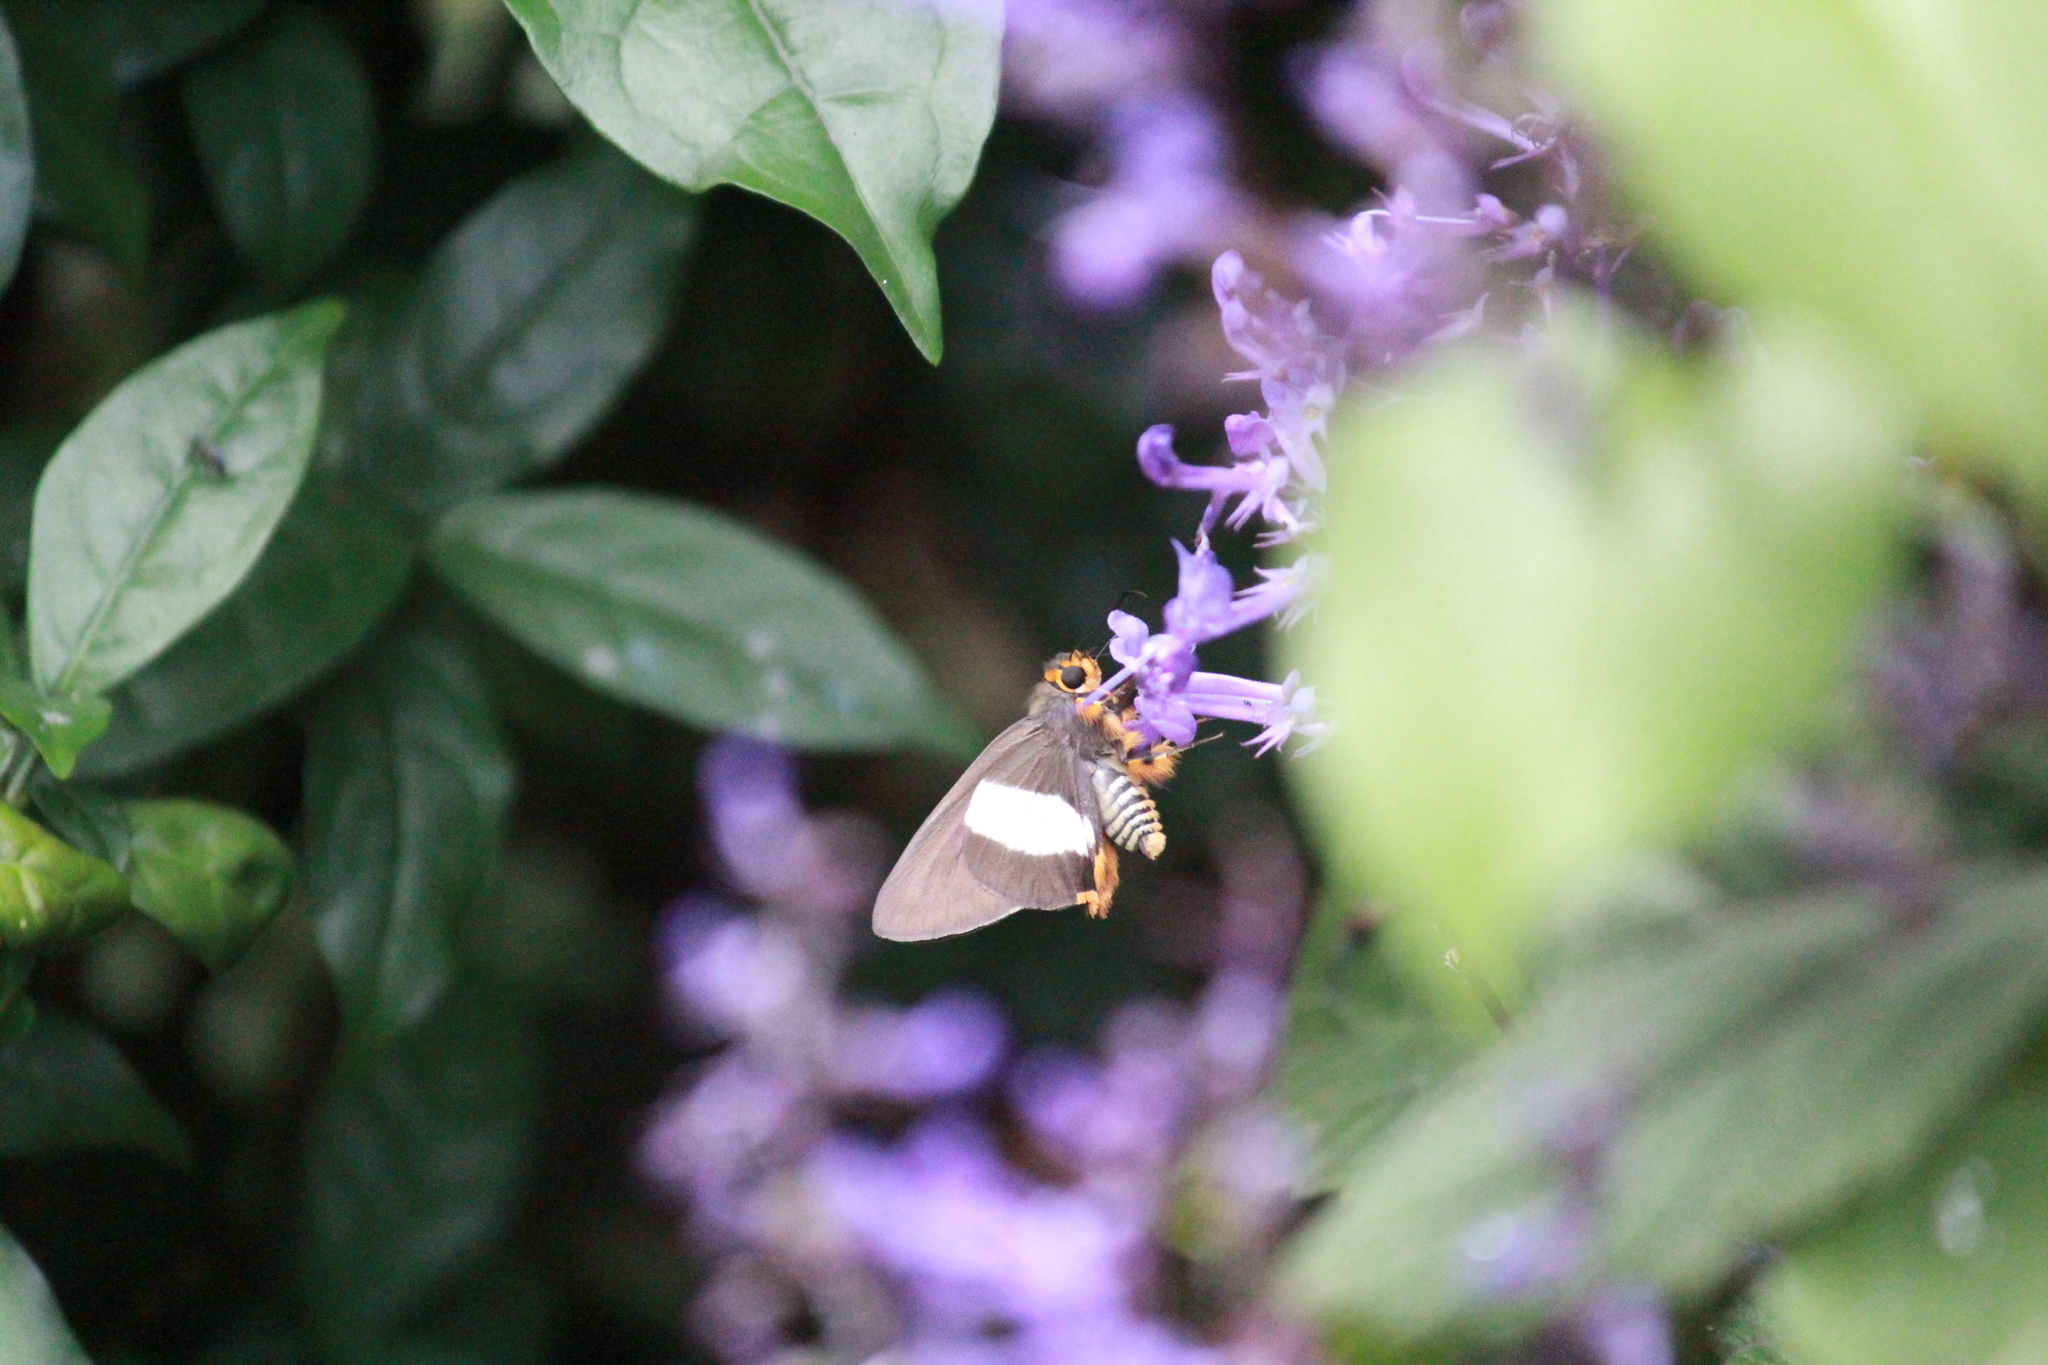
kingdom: Animalia
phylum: Arthropoda
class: Insecta
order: Lepidoptera
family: Hesperiidae
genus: Coeliades
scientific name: Coeliades forestan
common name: Striped policeman
